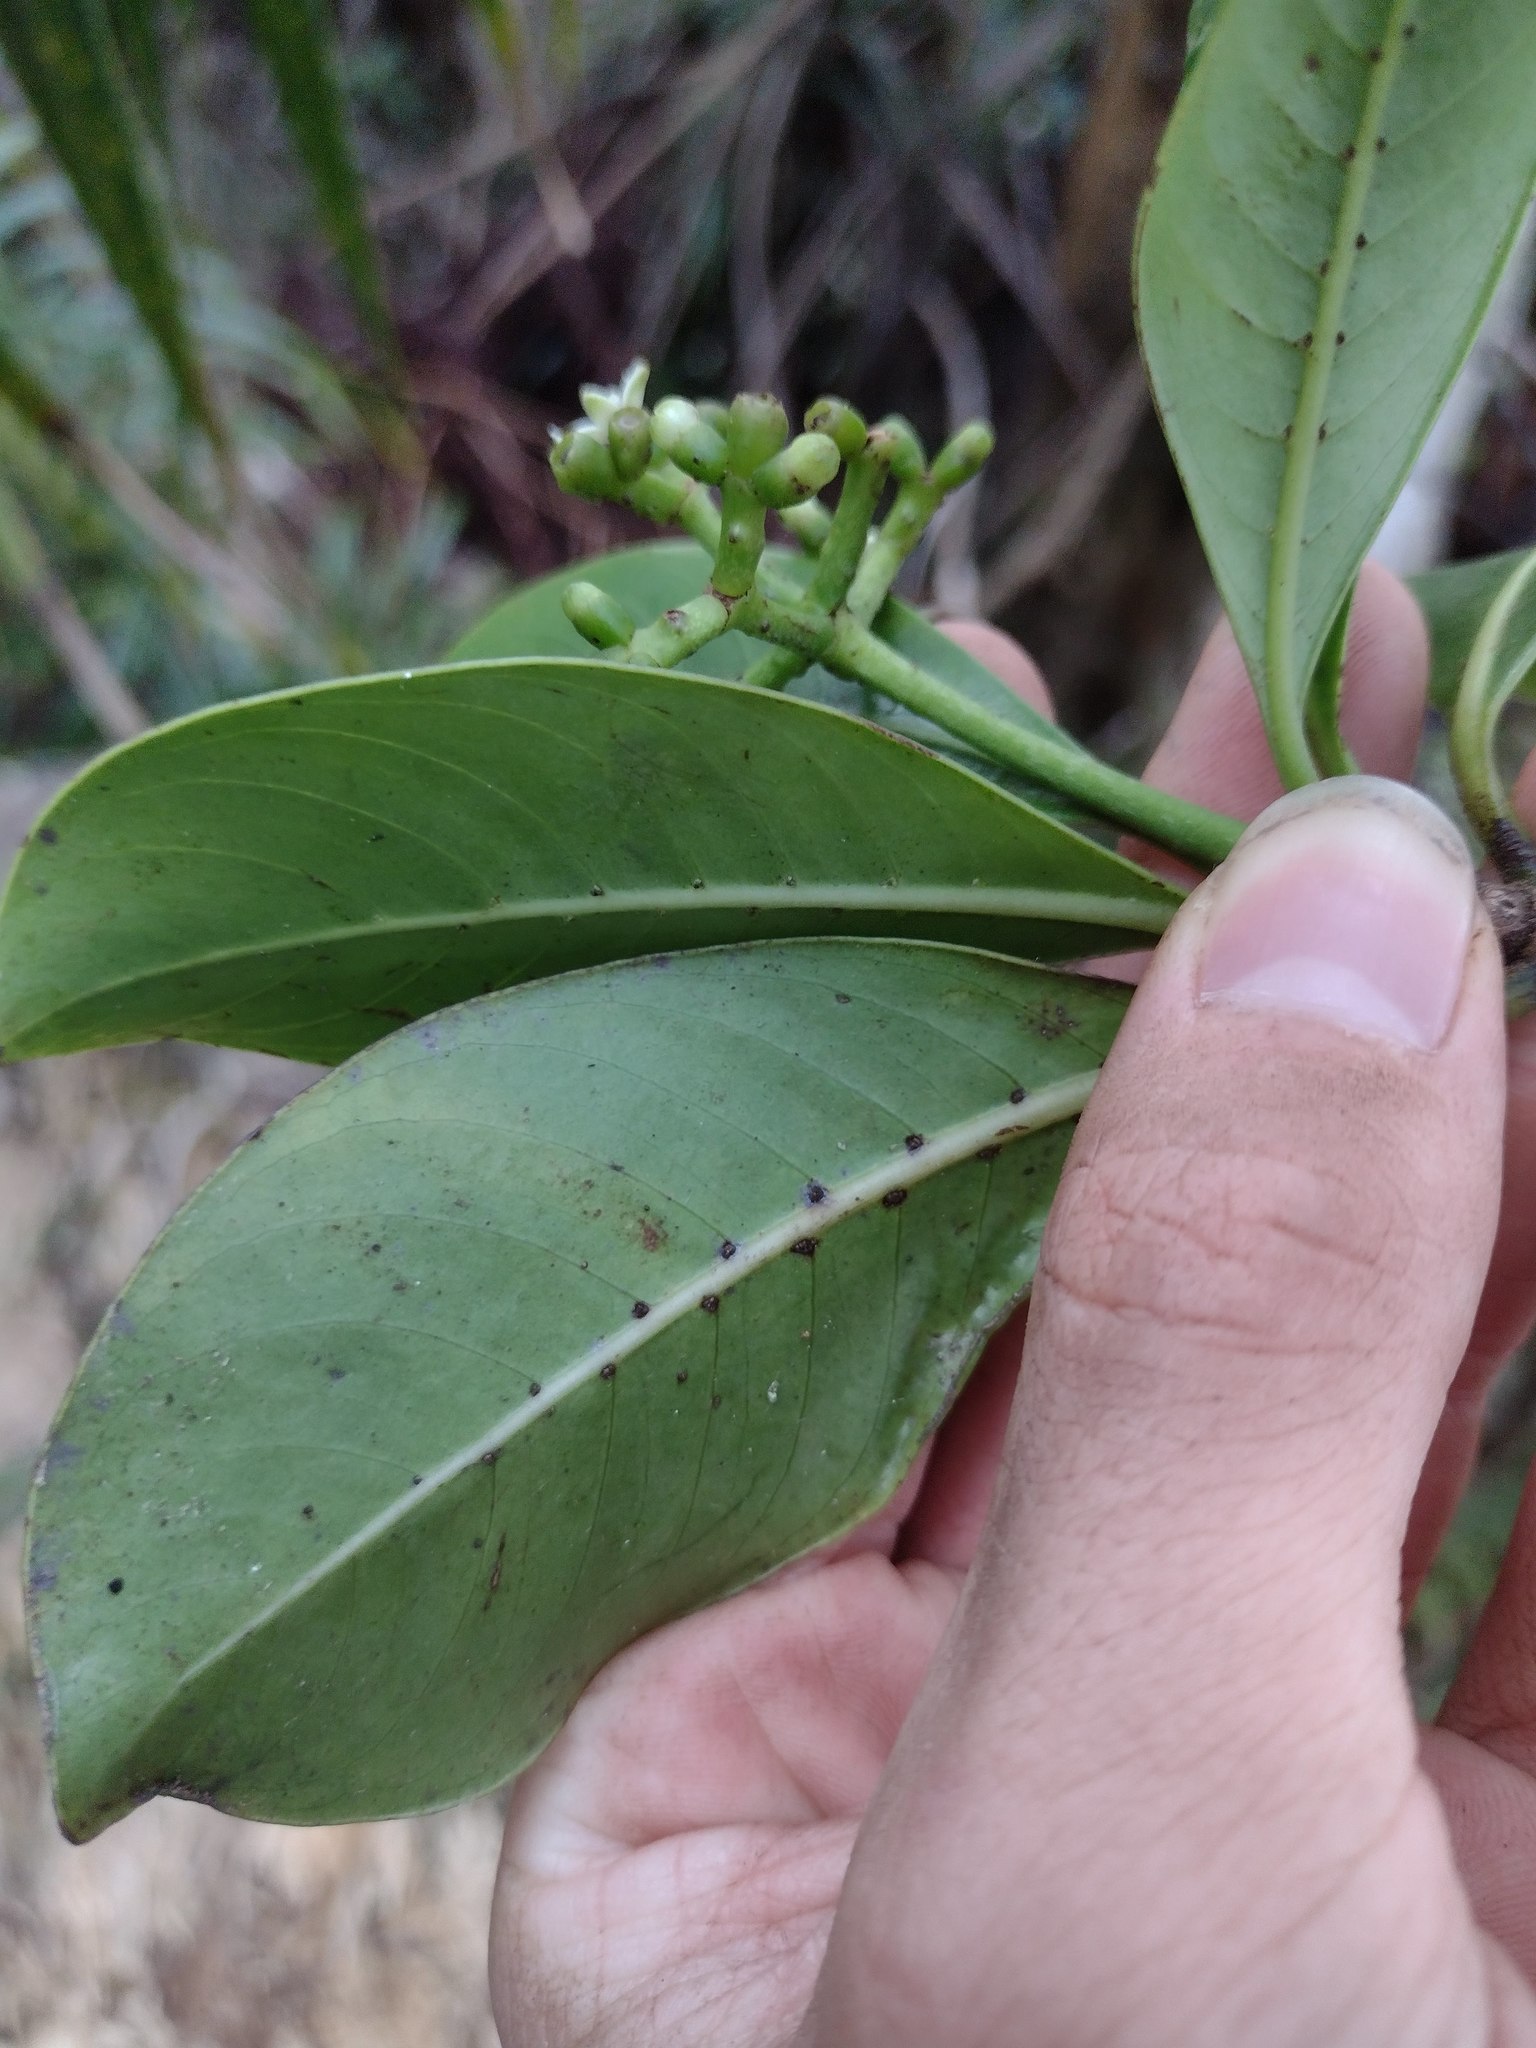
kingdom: Plantae
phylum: Tracheophyta
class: Magnoliopsida
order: Gentianales
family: Rubiaceae
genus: Psychotria
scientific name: Psychotria mariniana
